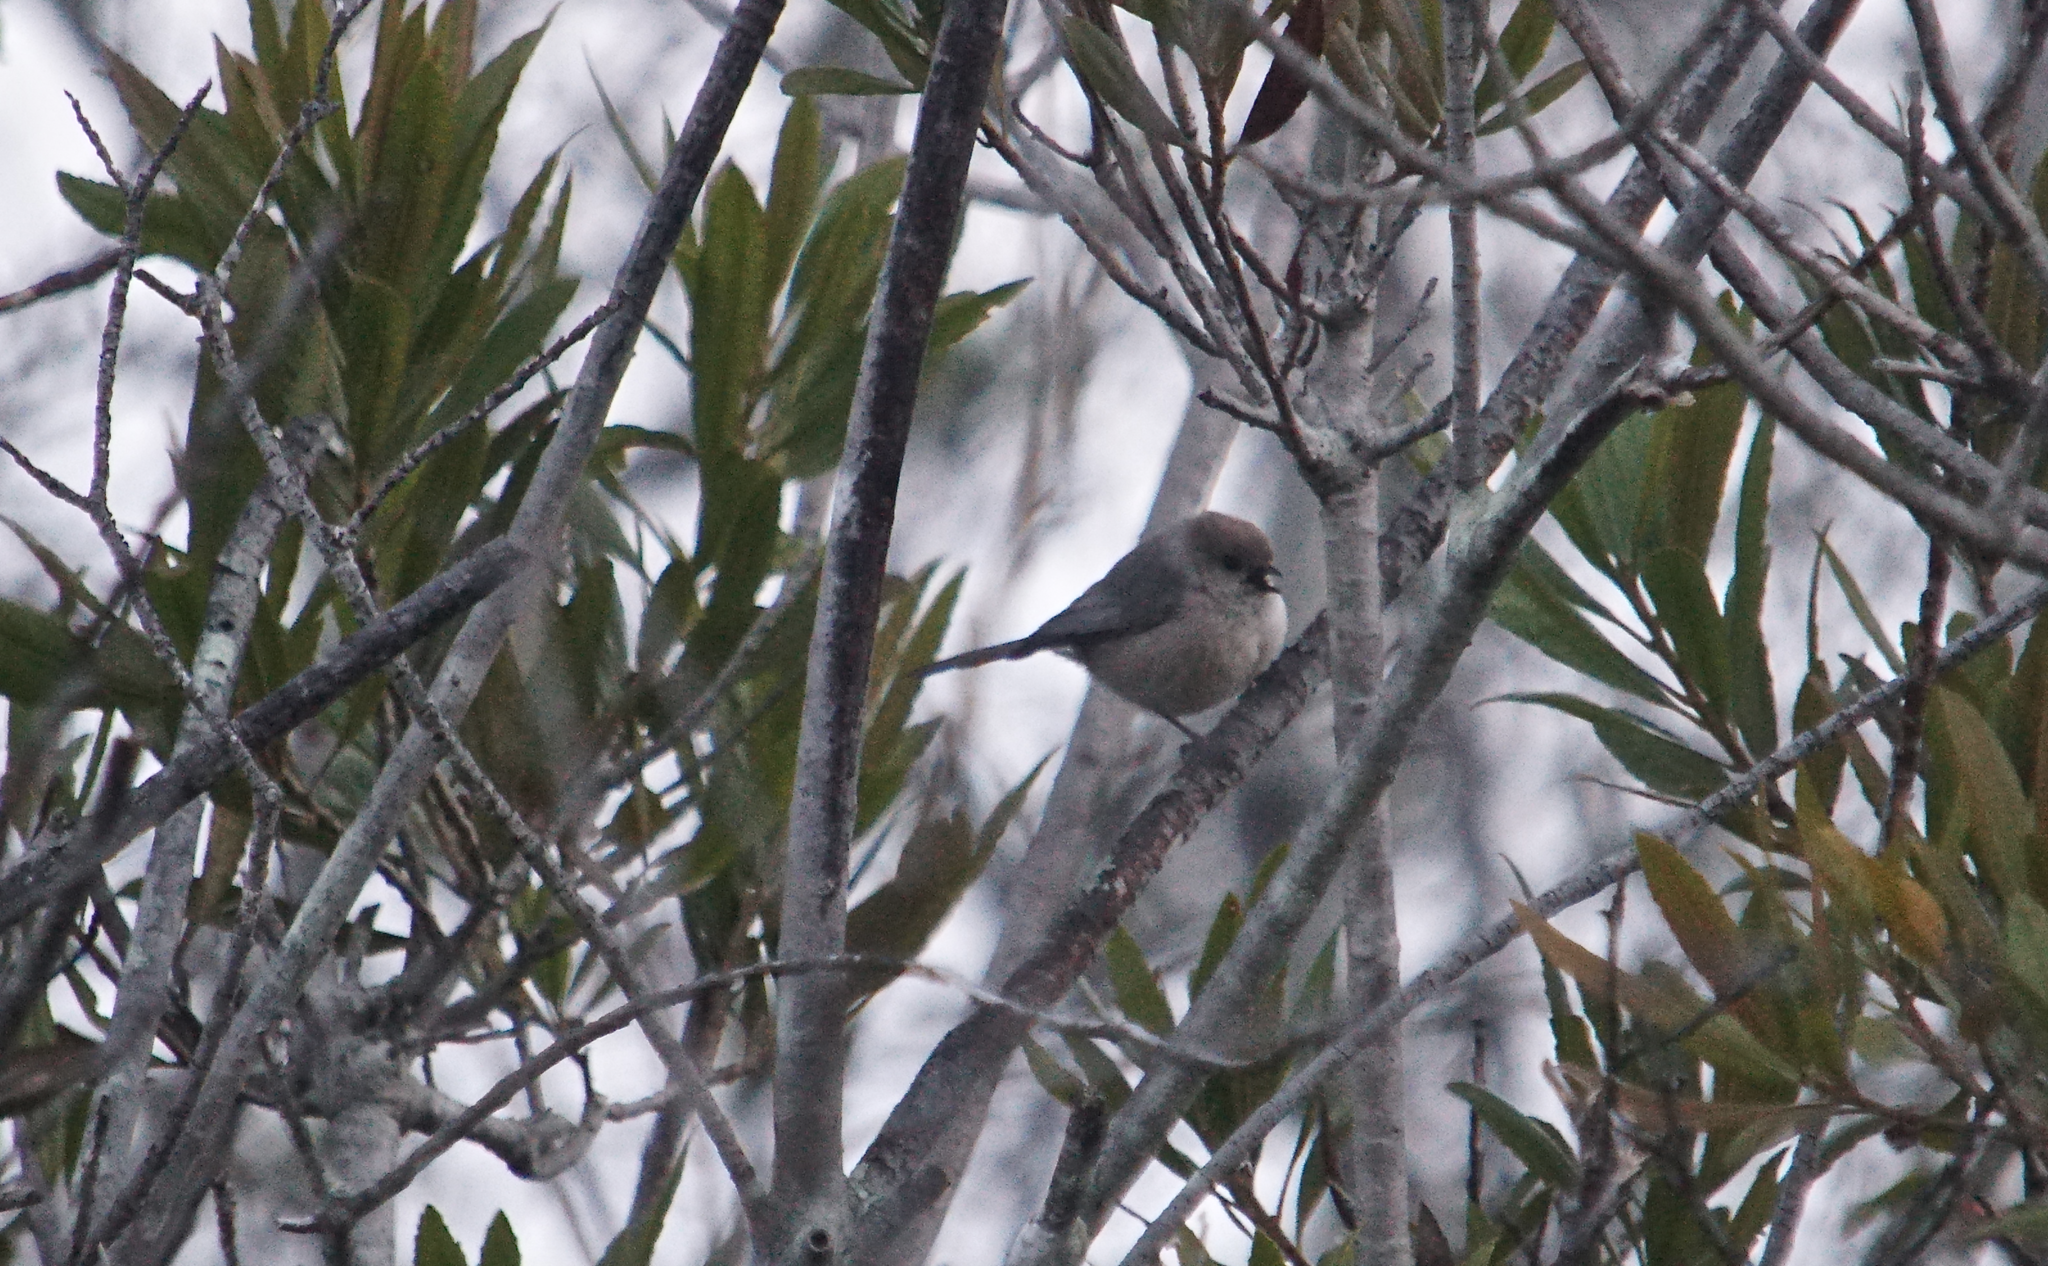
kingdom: Animalia
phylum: Chordata
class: Aves
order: Passeriformes
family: Aegithalidae
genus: Psaltriparus
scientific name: Psaltriparus minimus
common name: American bushtit
